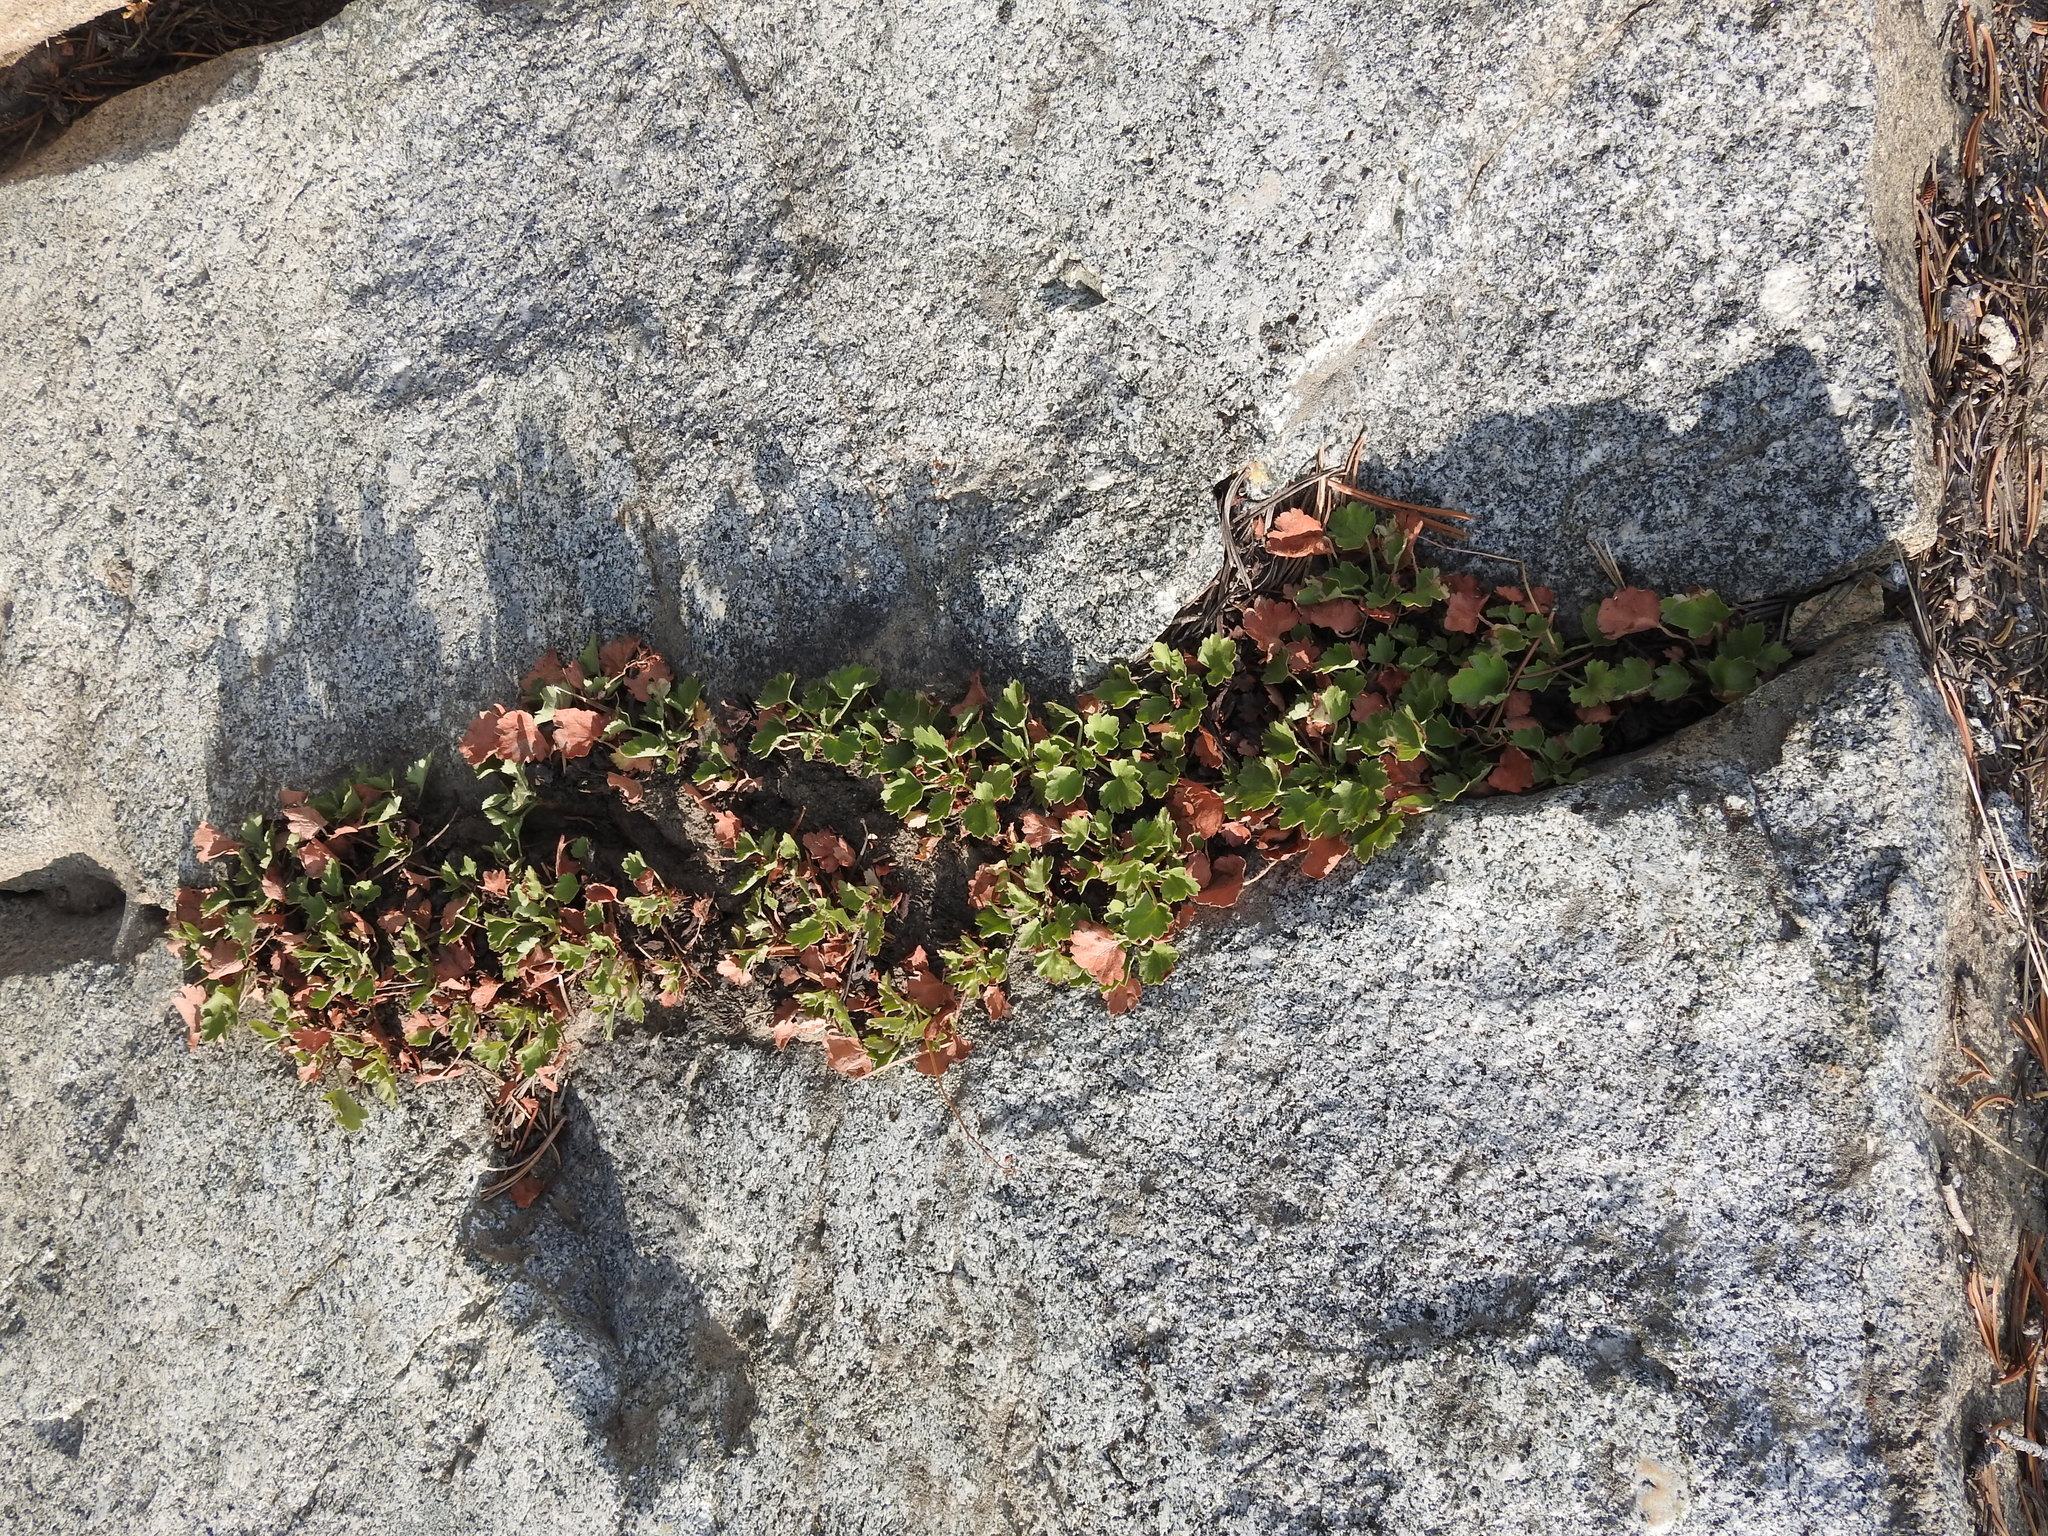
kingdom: Plantae
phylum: Tracheophyta
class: Magnoliopsida
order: Saxifragales
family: Saxifragaceae
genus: Heuchera
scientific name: Heuchera rubescens
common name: Jack-o'the-rocks
